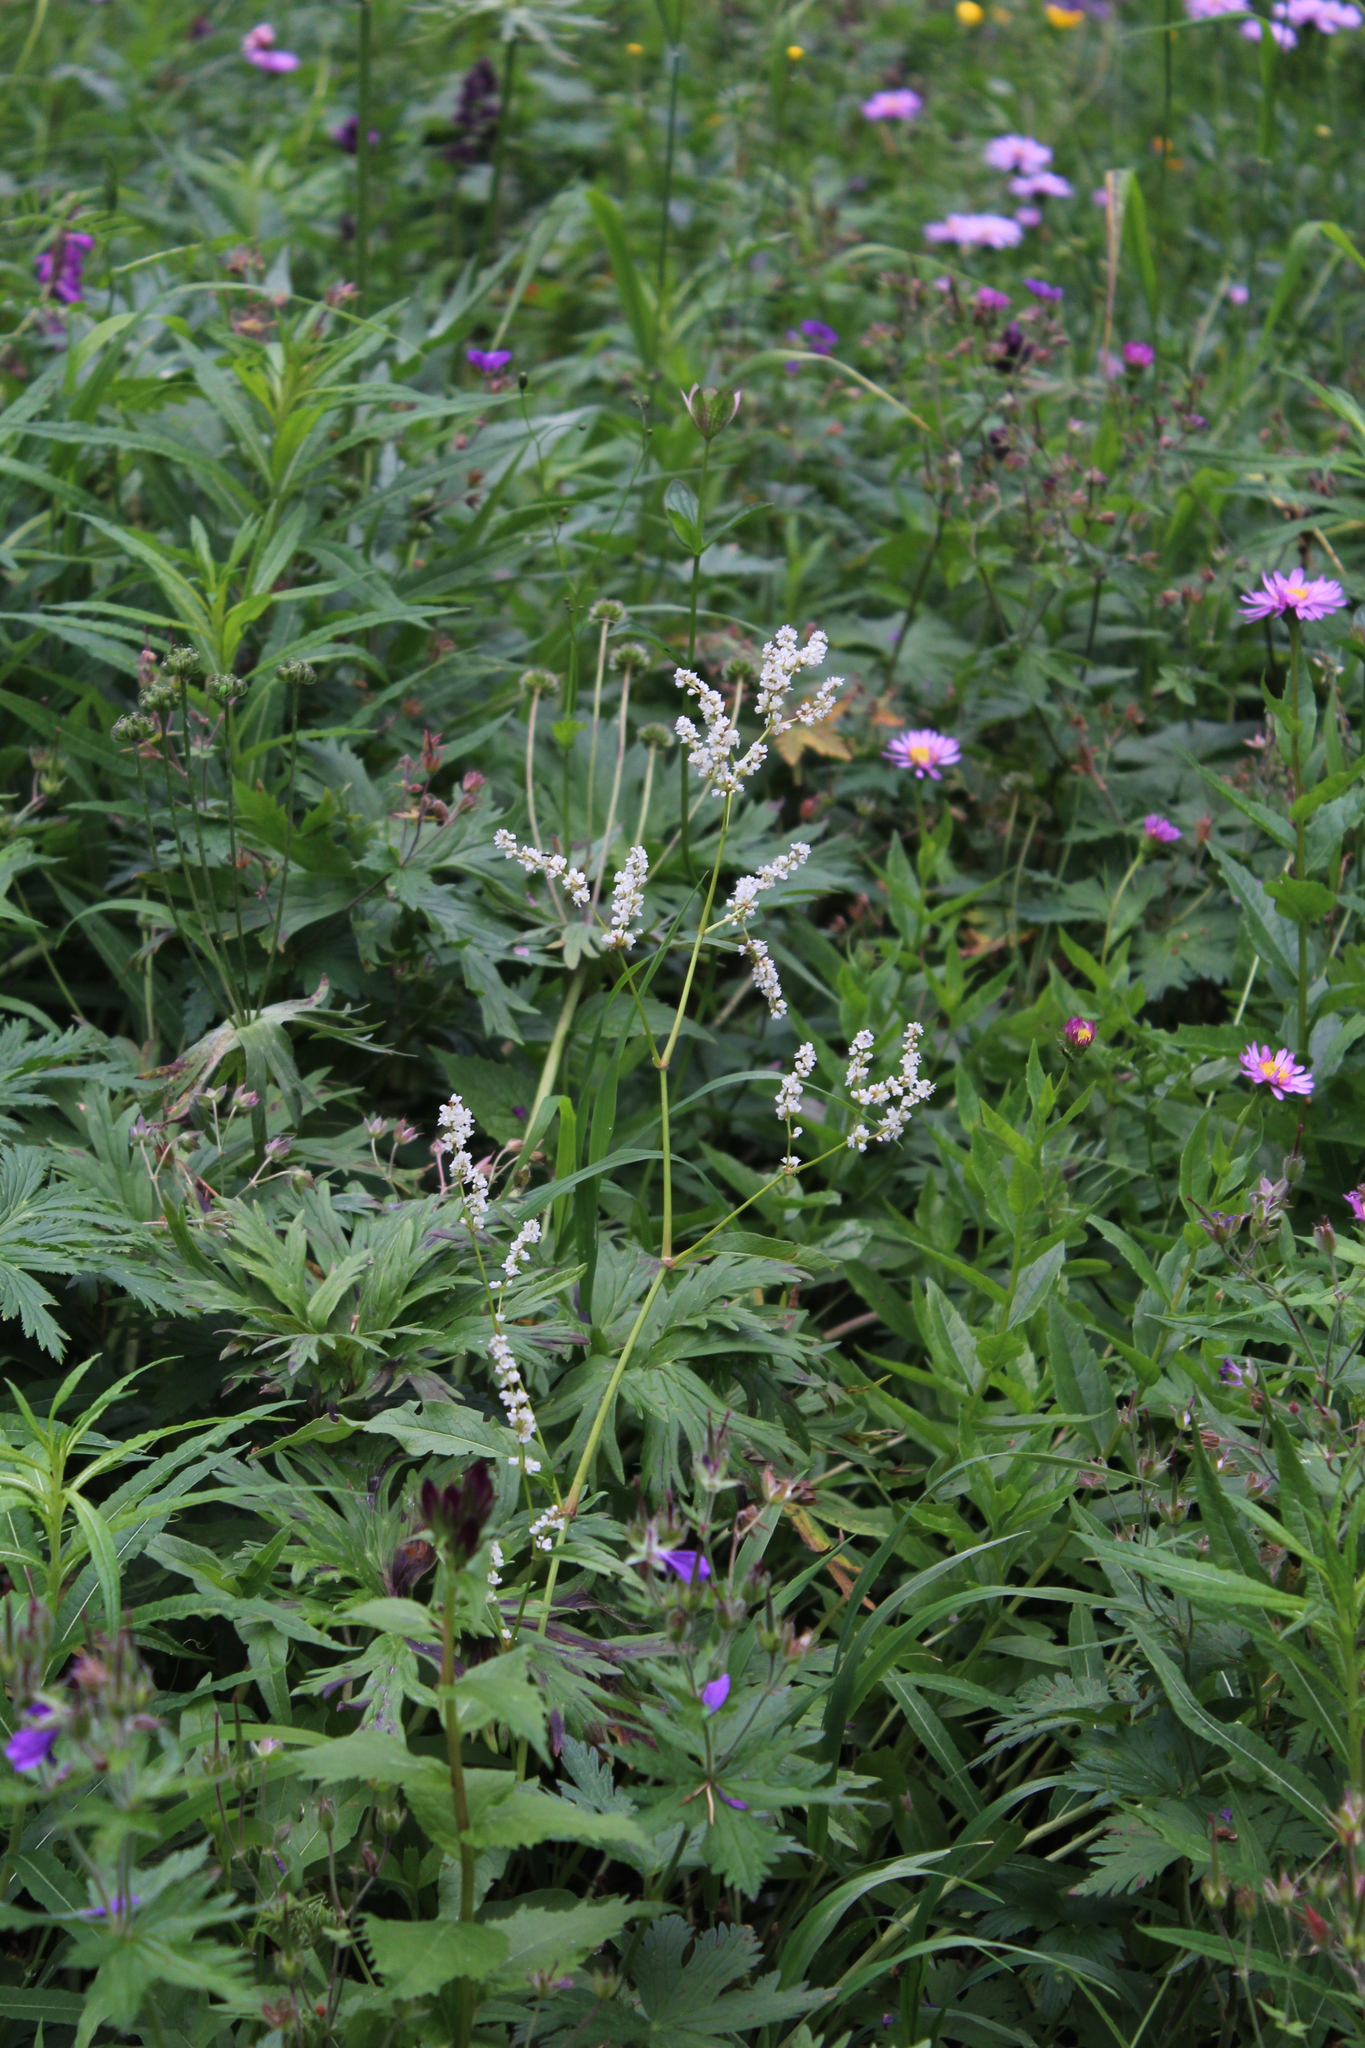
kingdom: Plantae
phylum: Tracheophyta
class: Magnoliopsida
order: Caryophyllales
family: Polygonaceae
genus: Koenigia
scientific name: Koenigia alpina
